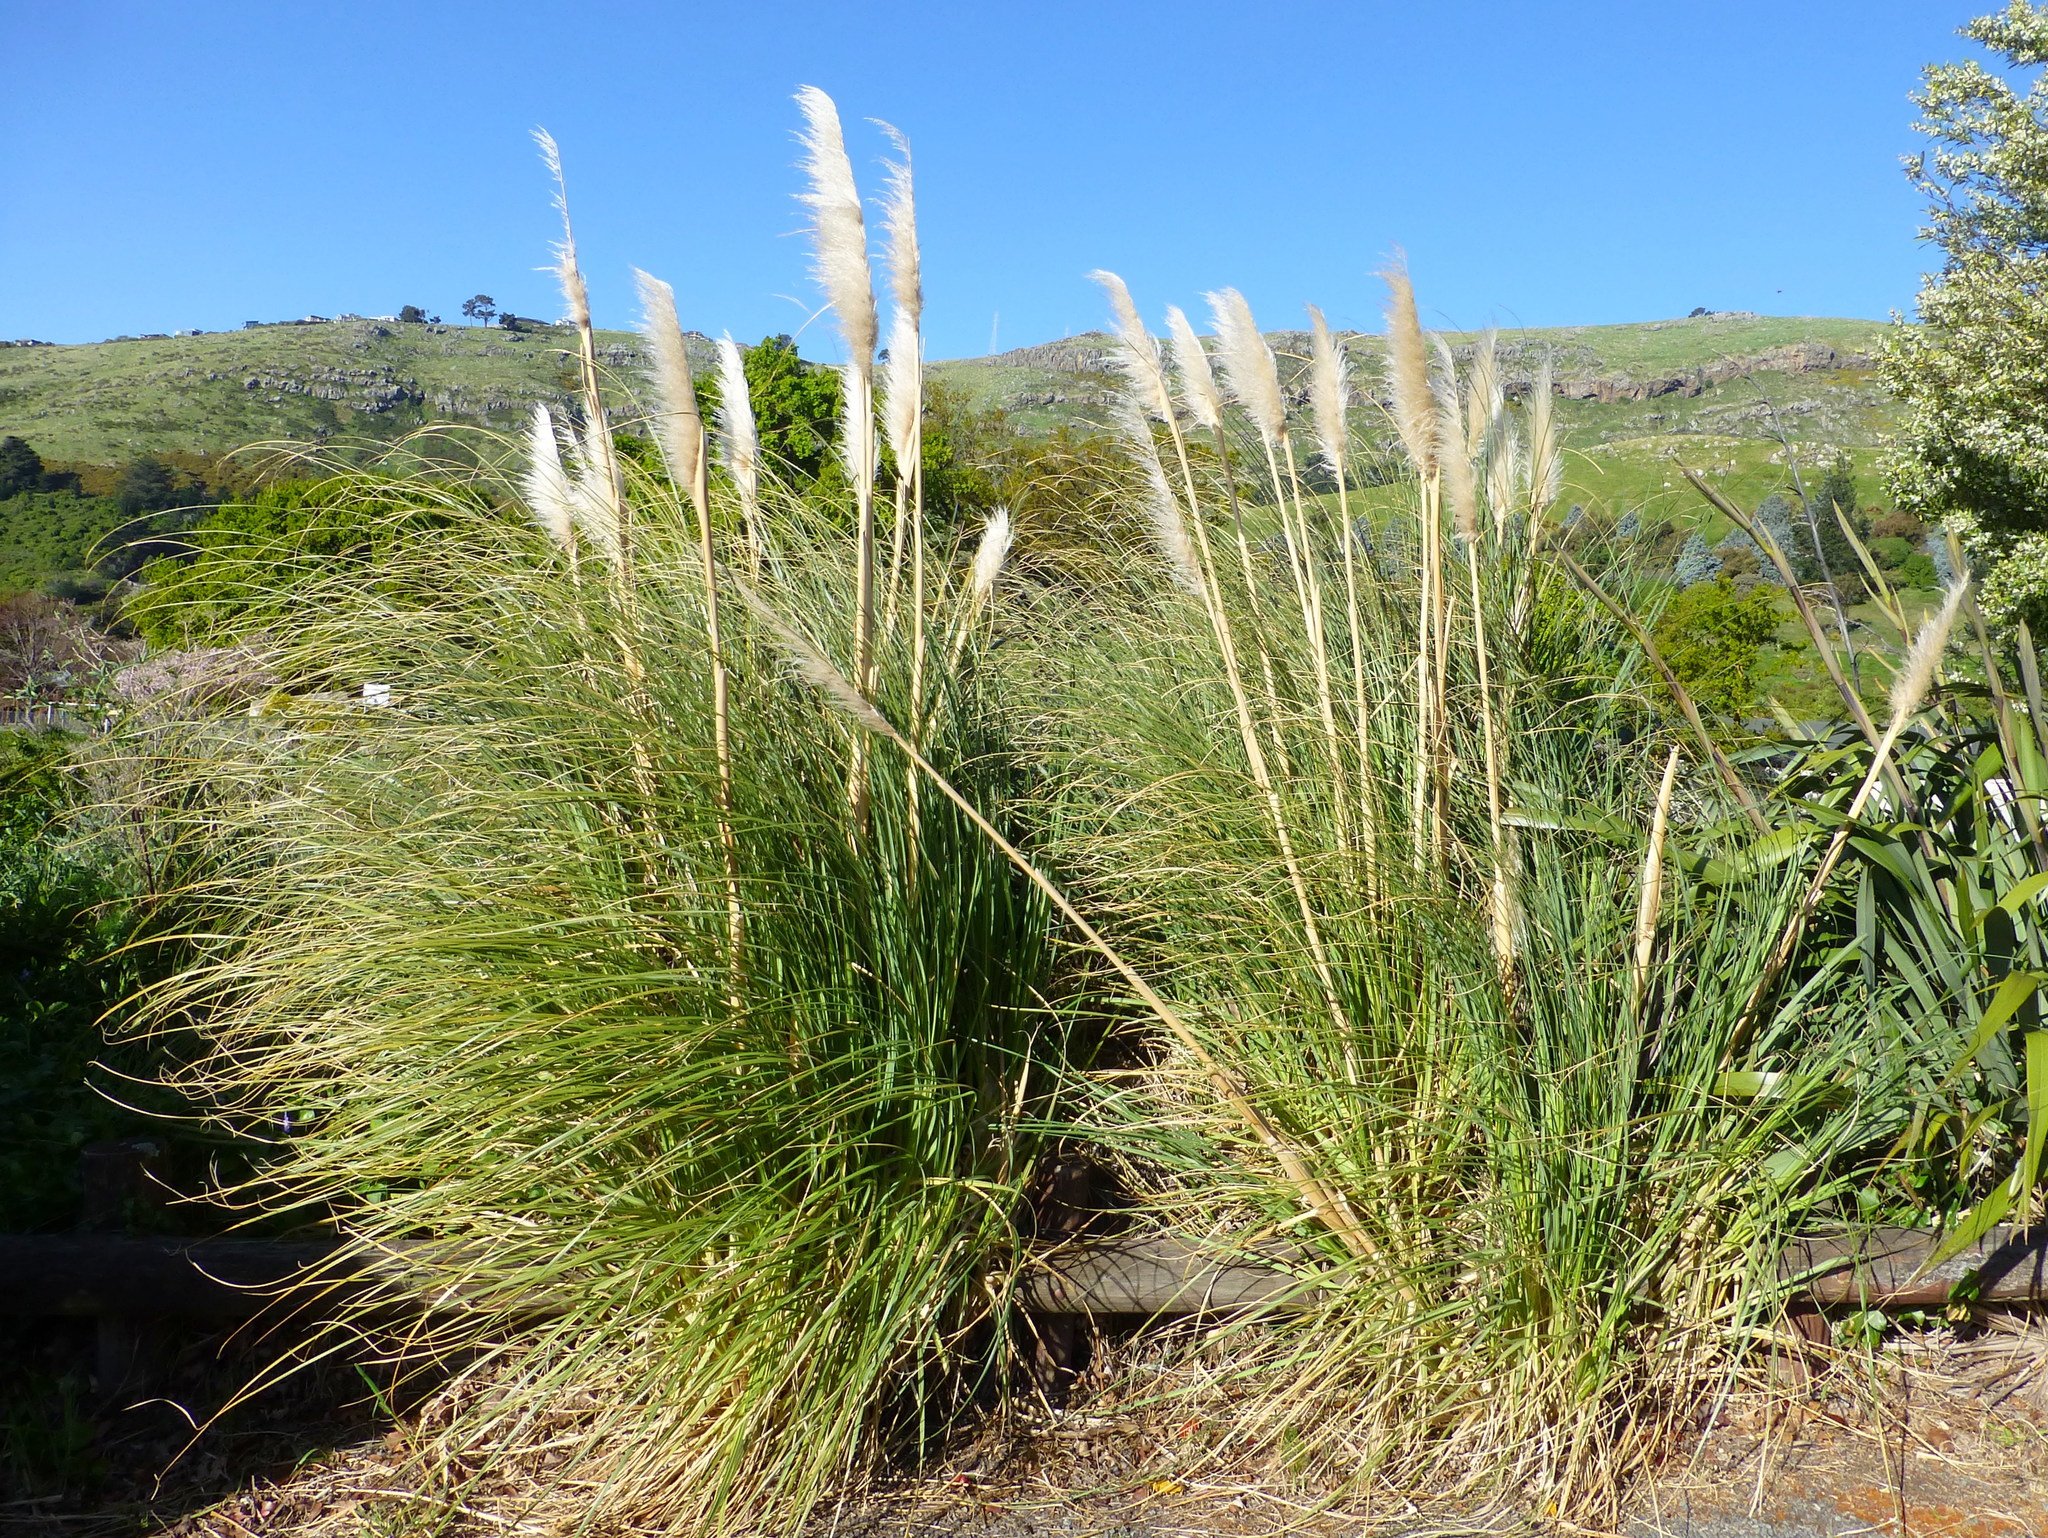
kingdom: Plantae
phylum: Tracheophyta
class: Liliopsida
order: Poales
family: Poaceae
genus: Cortaderia
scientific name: Cortaderia selloana
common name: Uruguayan pampas grass
